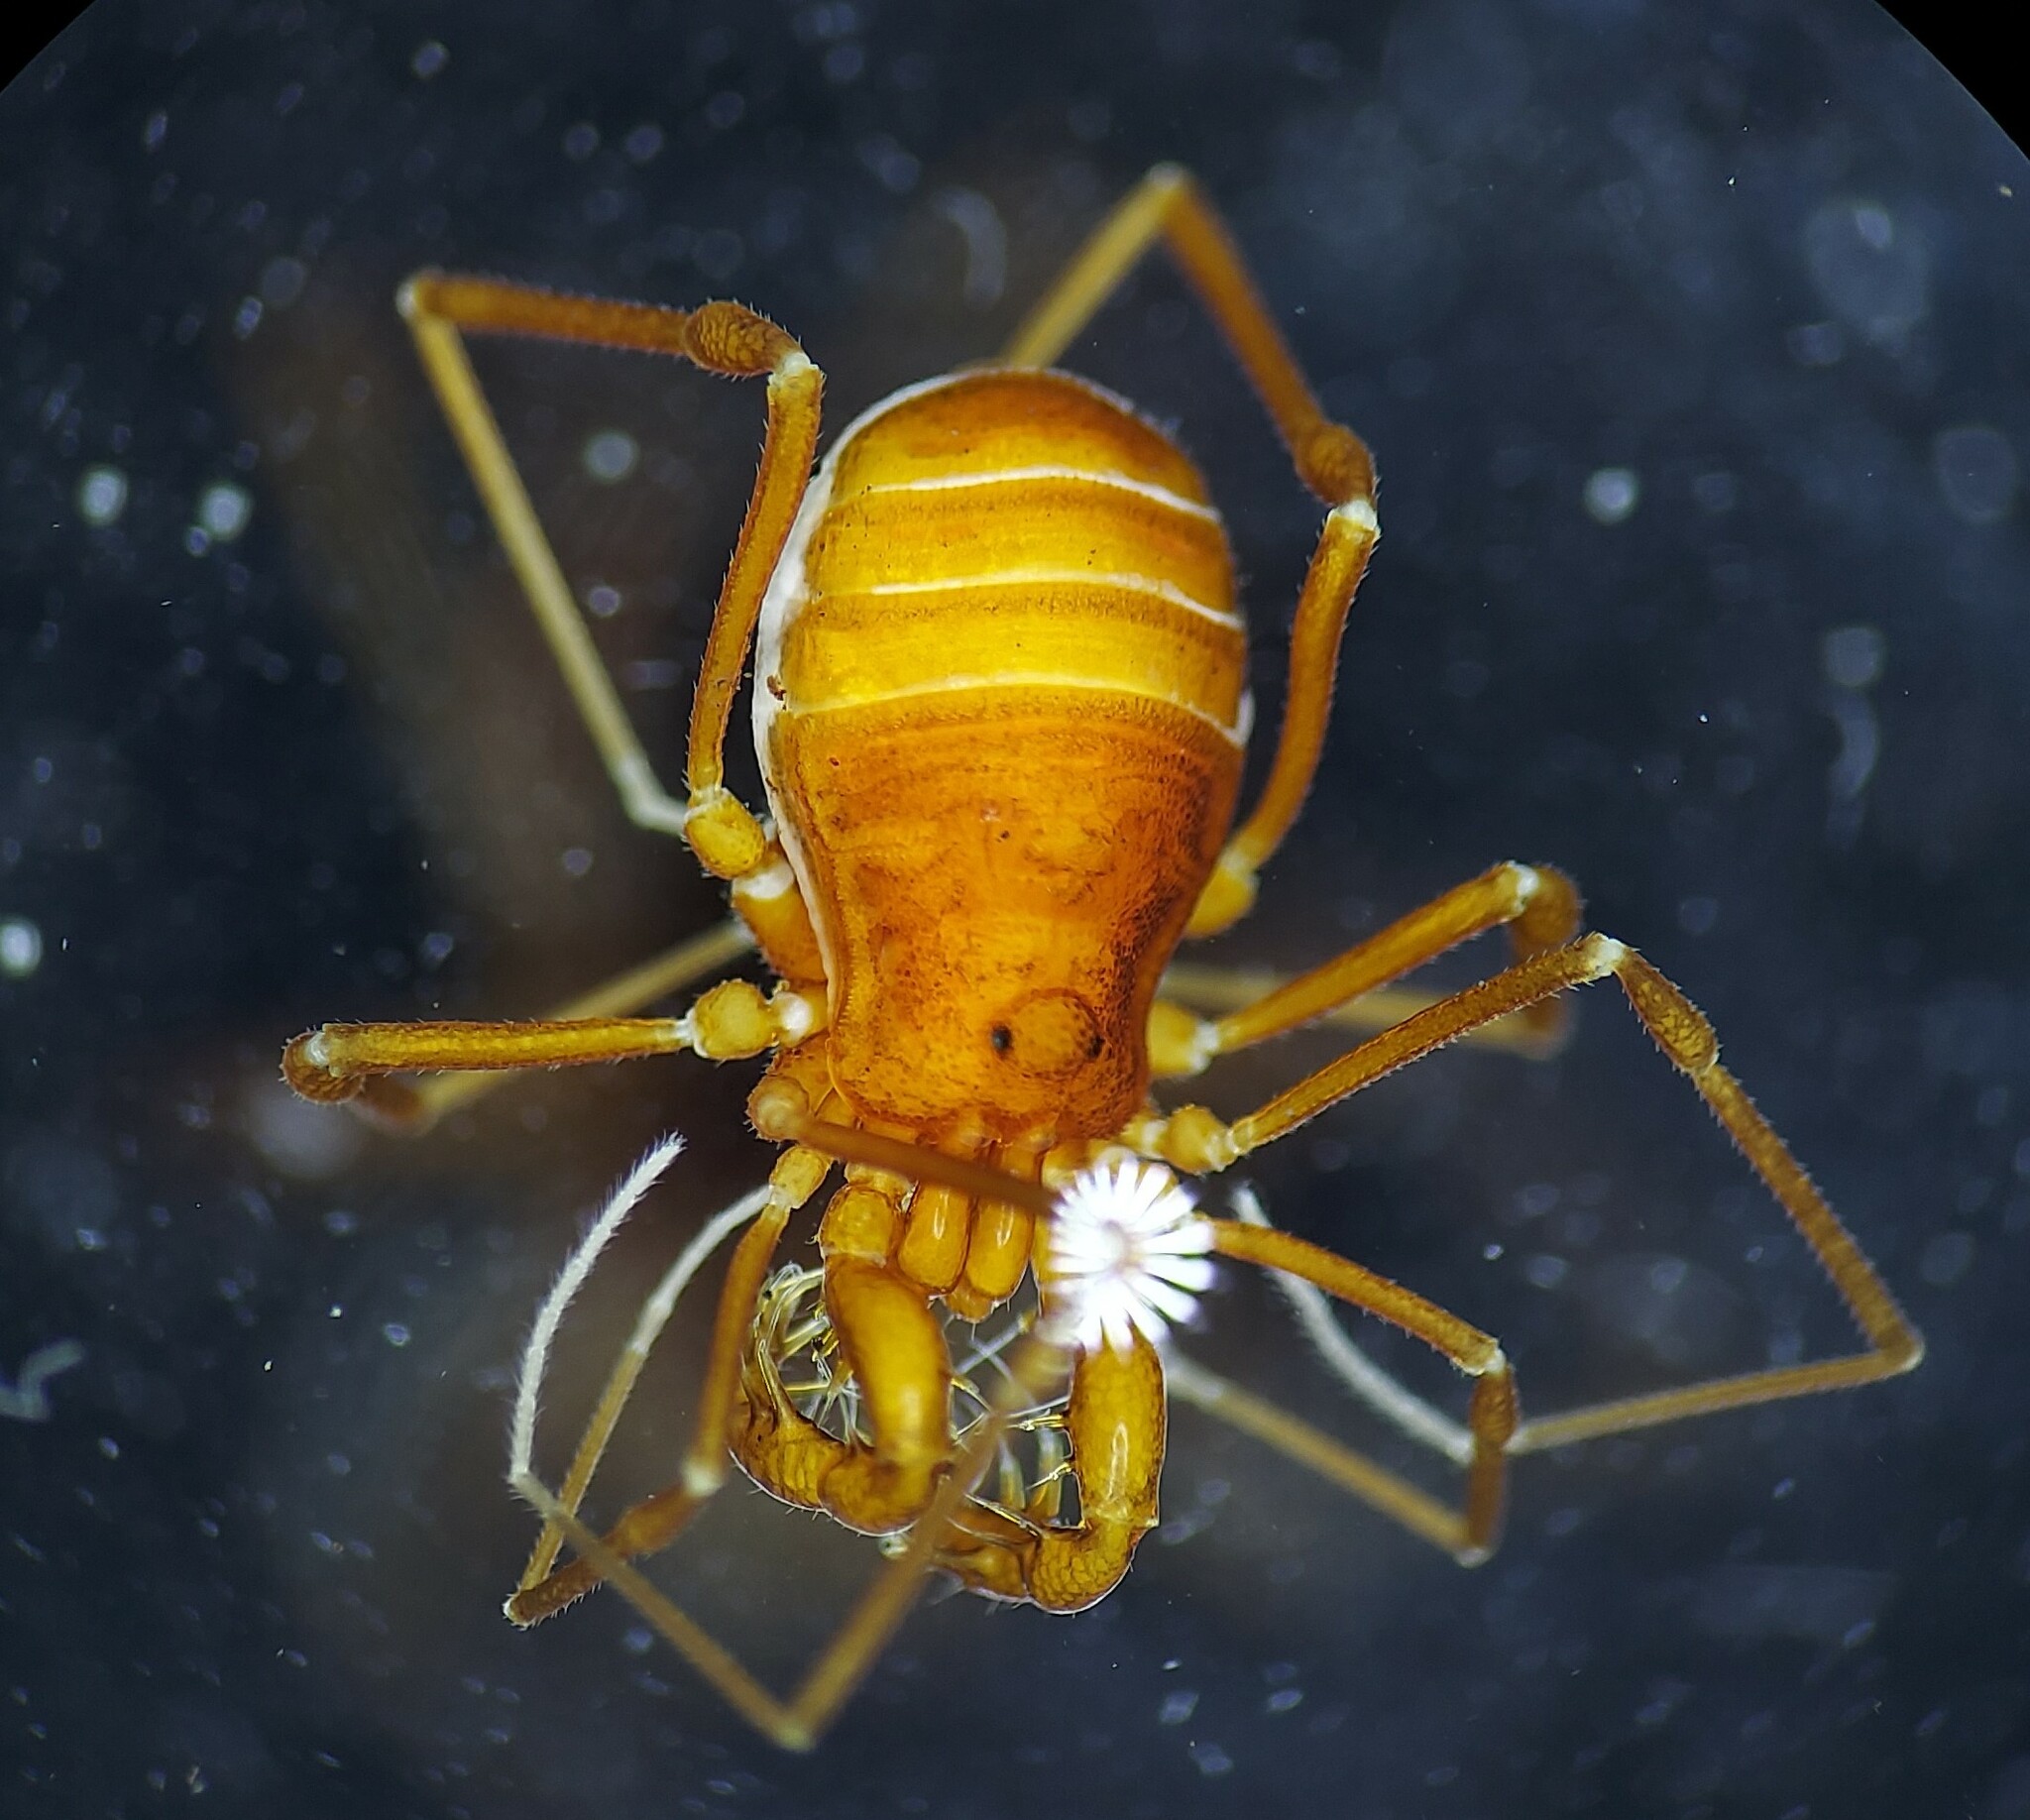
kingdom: Animalia
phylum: Arthropoda
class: Arachnida
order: Opiliones
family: Phalangodidae
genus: Bishopella
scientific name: Bishopella laciniosa
